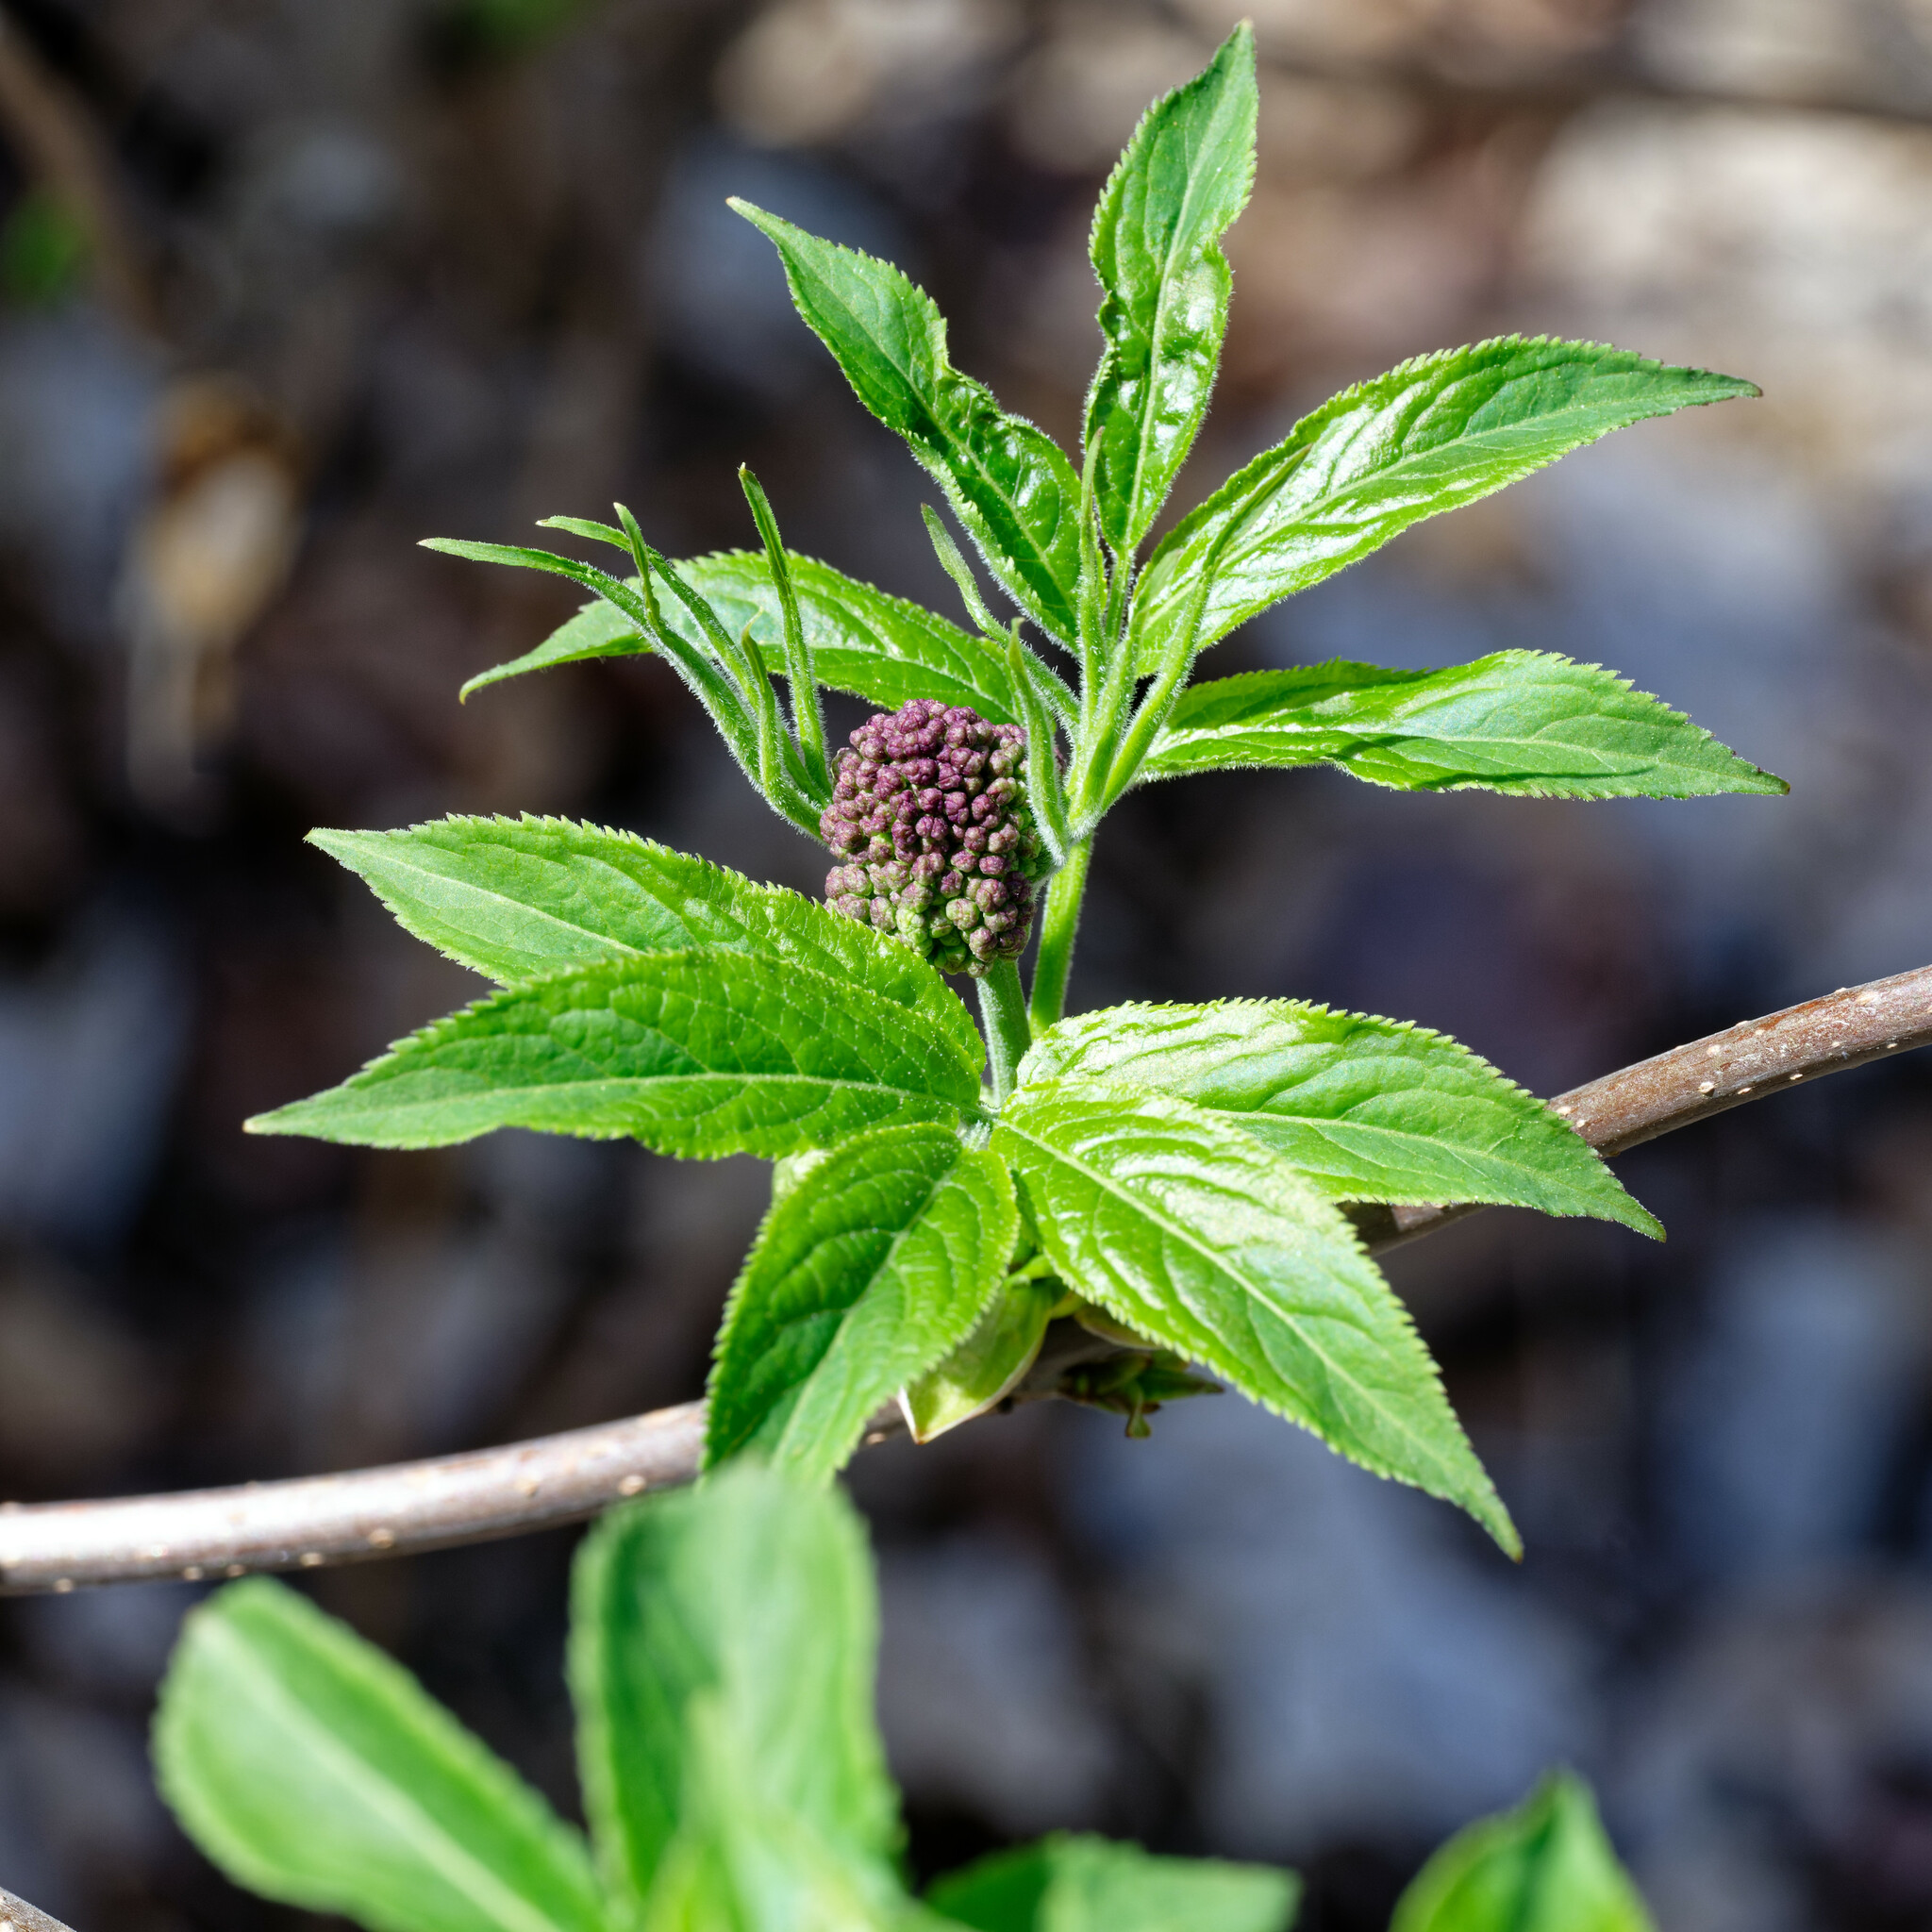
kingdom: Plantae
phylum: Tracheophyta
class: Magnoliopsida
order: Dipsacales
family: Viburnaceae
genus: Sambucus
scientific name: Sambucus racemosa
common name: Red-berried elder
